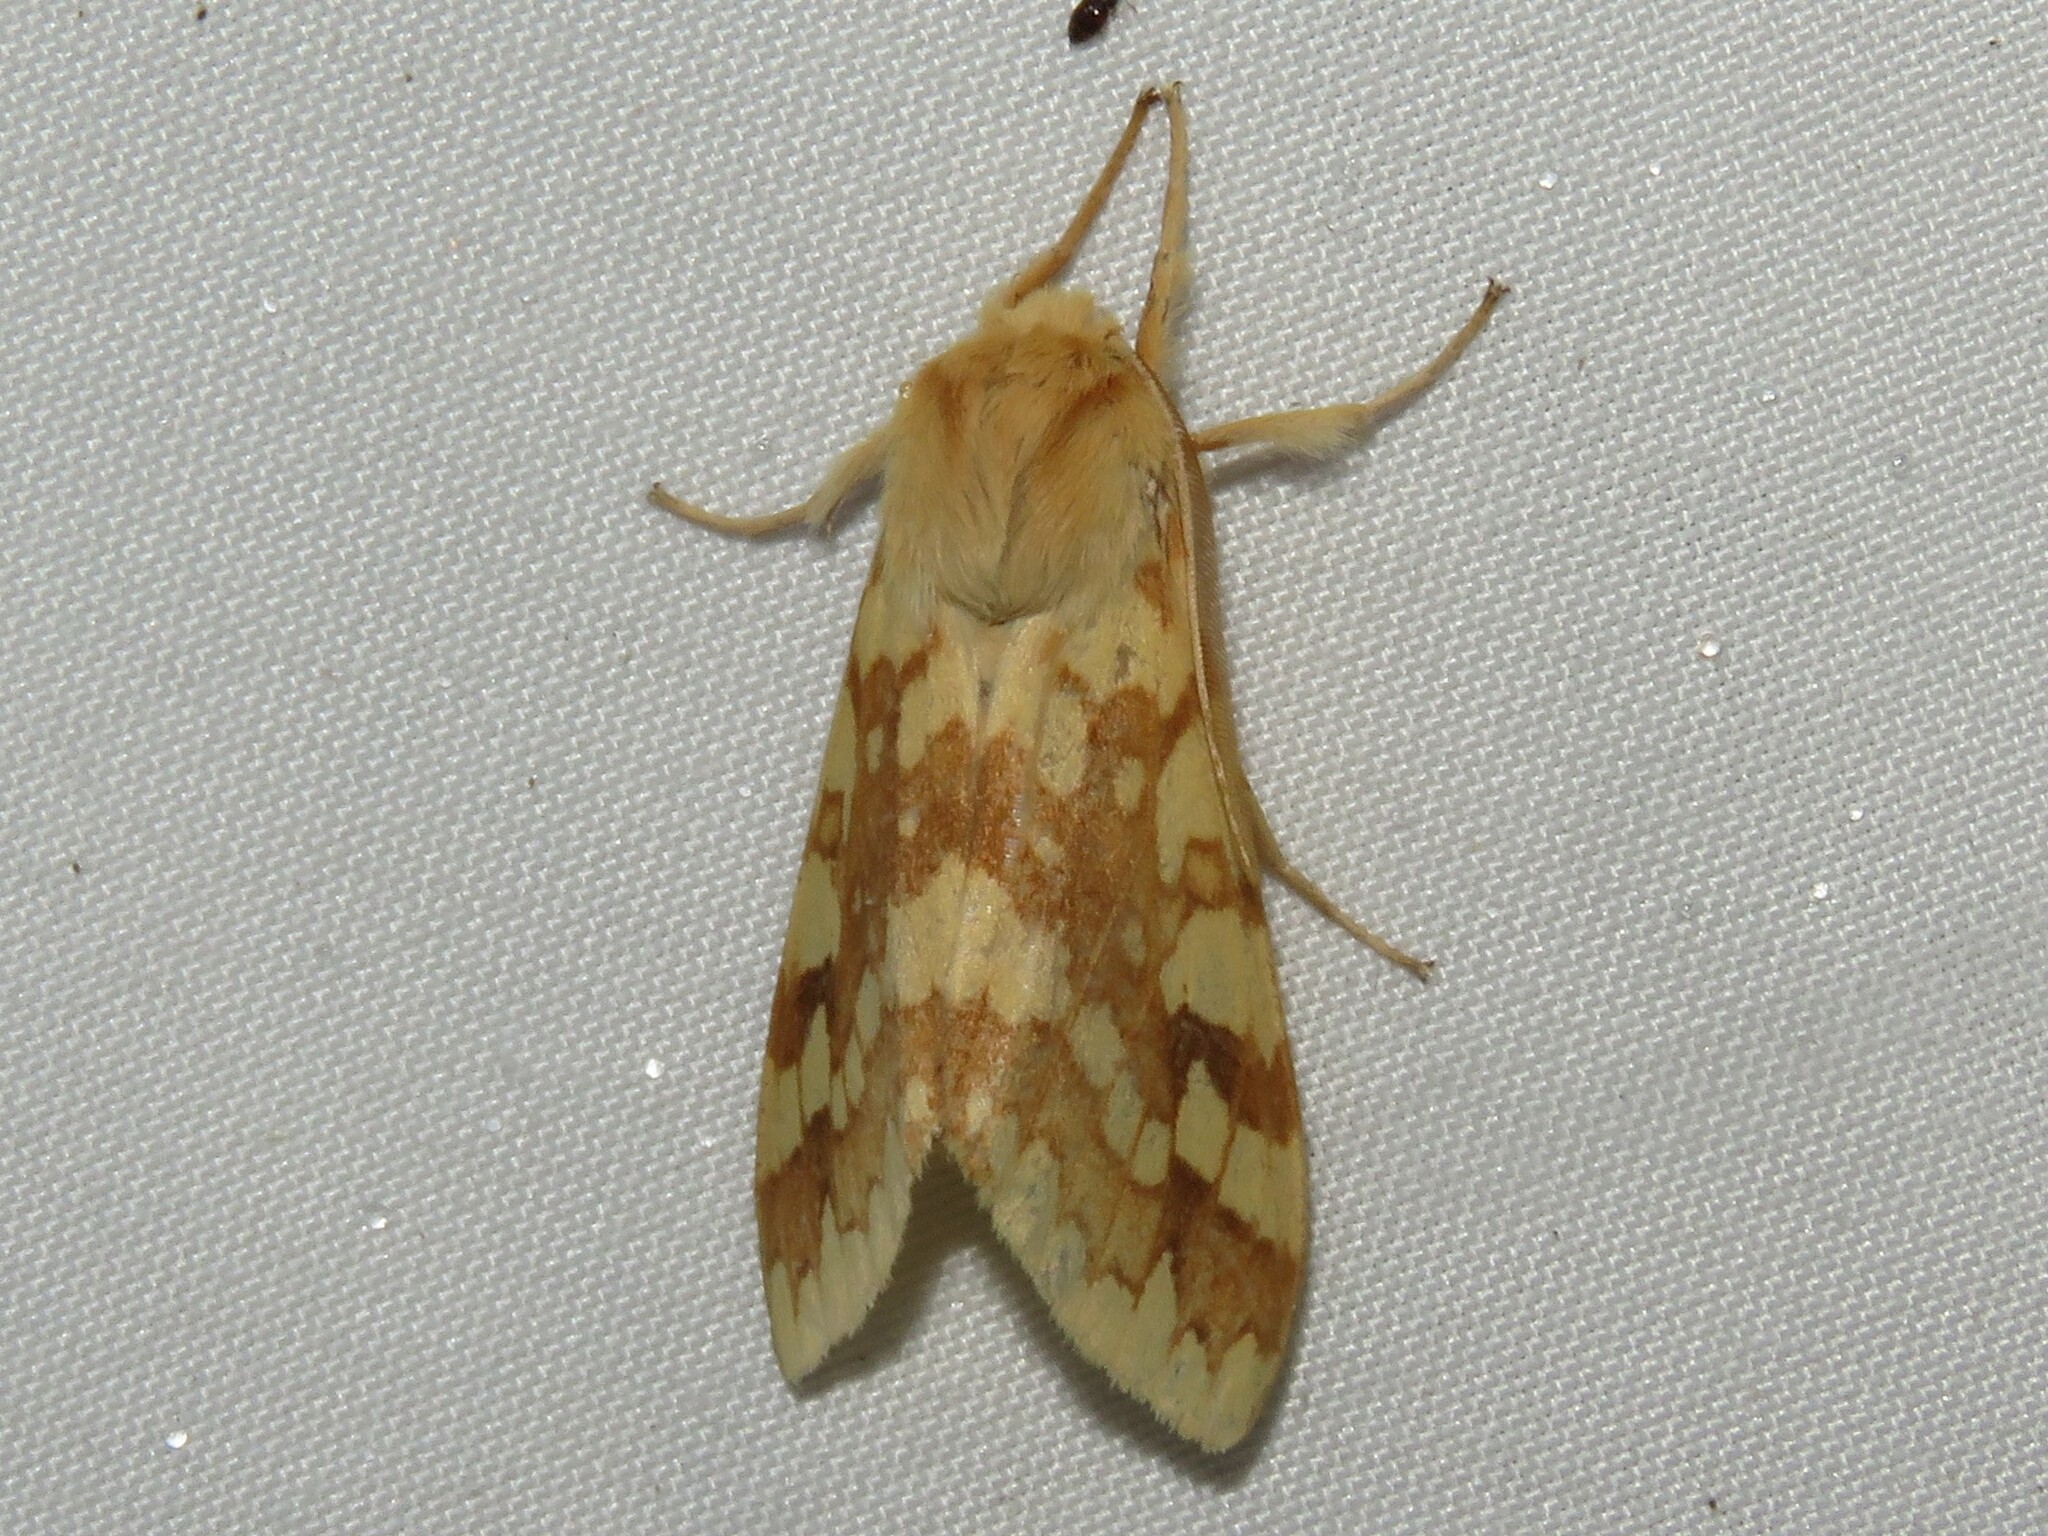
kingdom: Animalia
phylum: Arthropoda
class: Insecta
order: Lepidoptera
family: Erebidae
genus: Lophocampa
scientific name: Lophocampa maculata
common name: Spotted tussock moth
